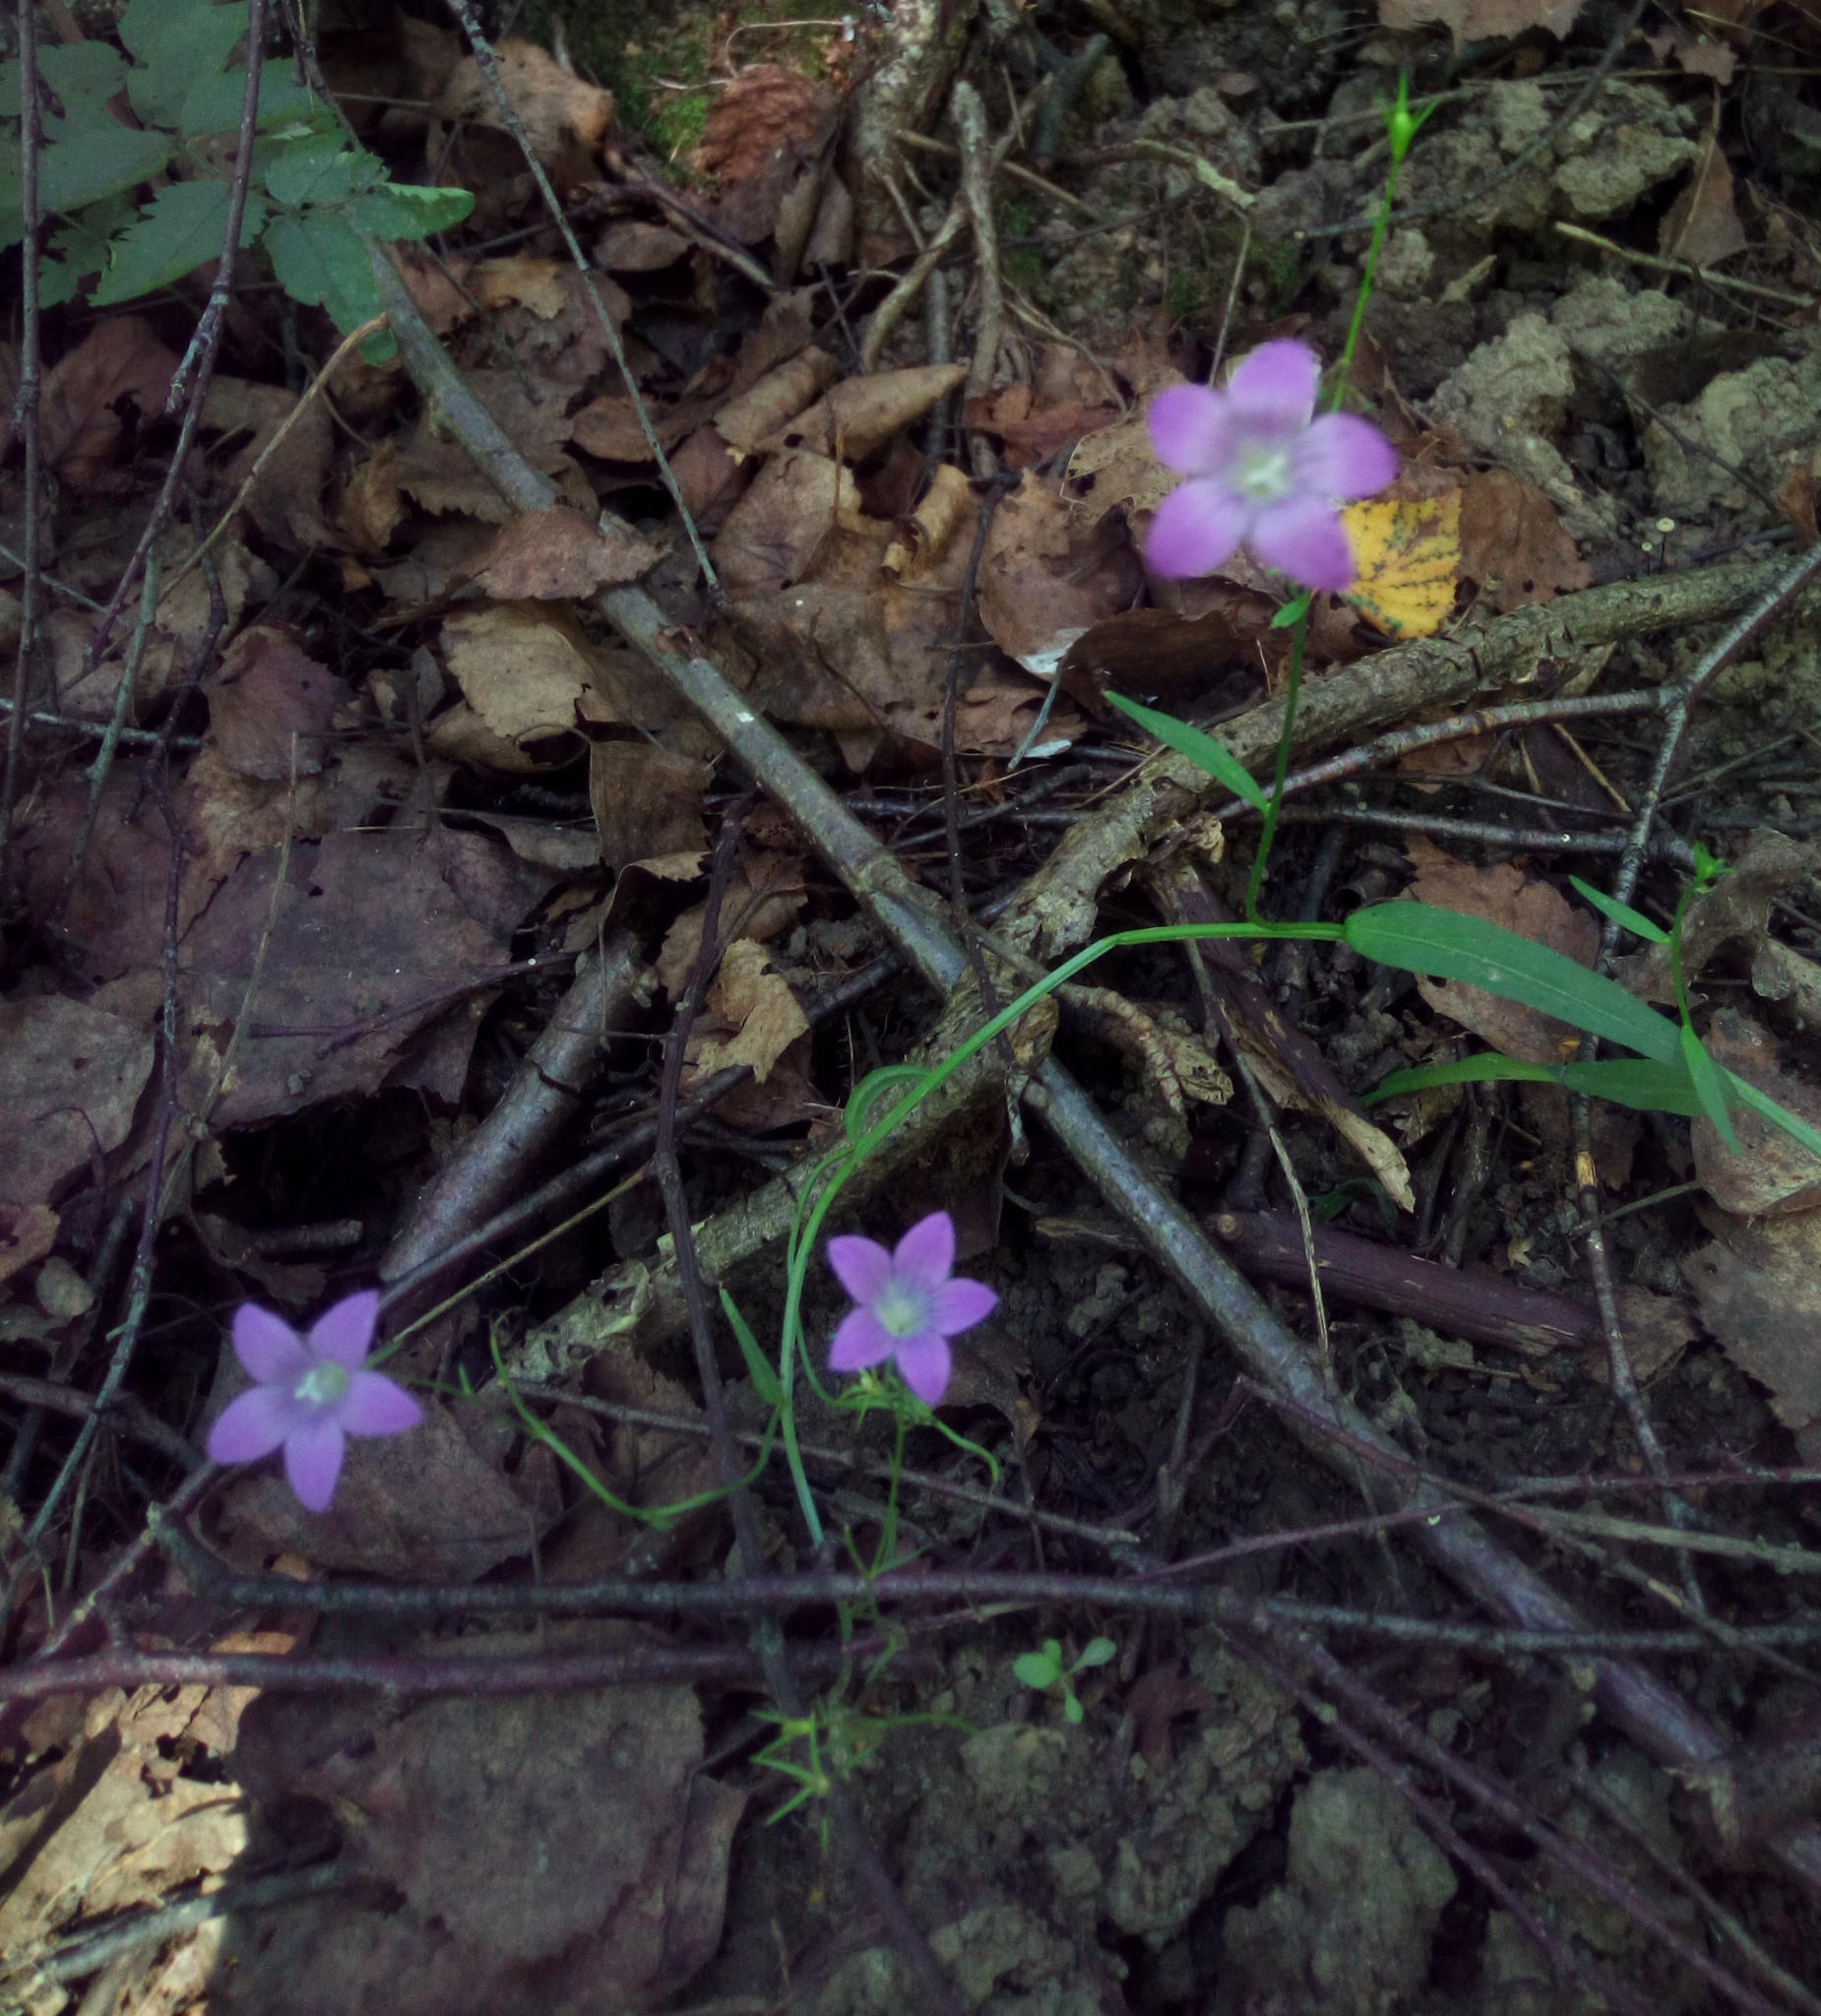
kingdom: Plantae
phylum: Tracheophyta
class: Magnoliopsida
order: Asterales
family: Campanulaceae
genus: Campanula
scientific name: Campanula patula
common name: Spreading bellflower
